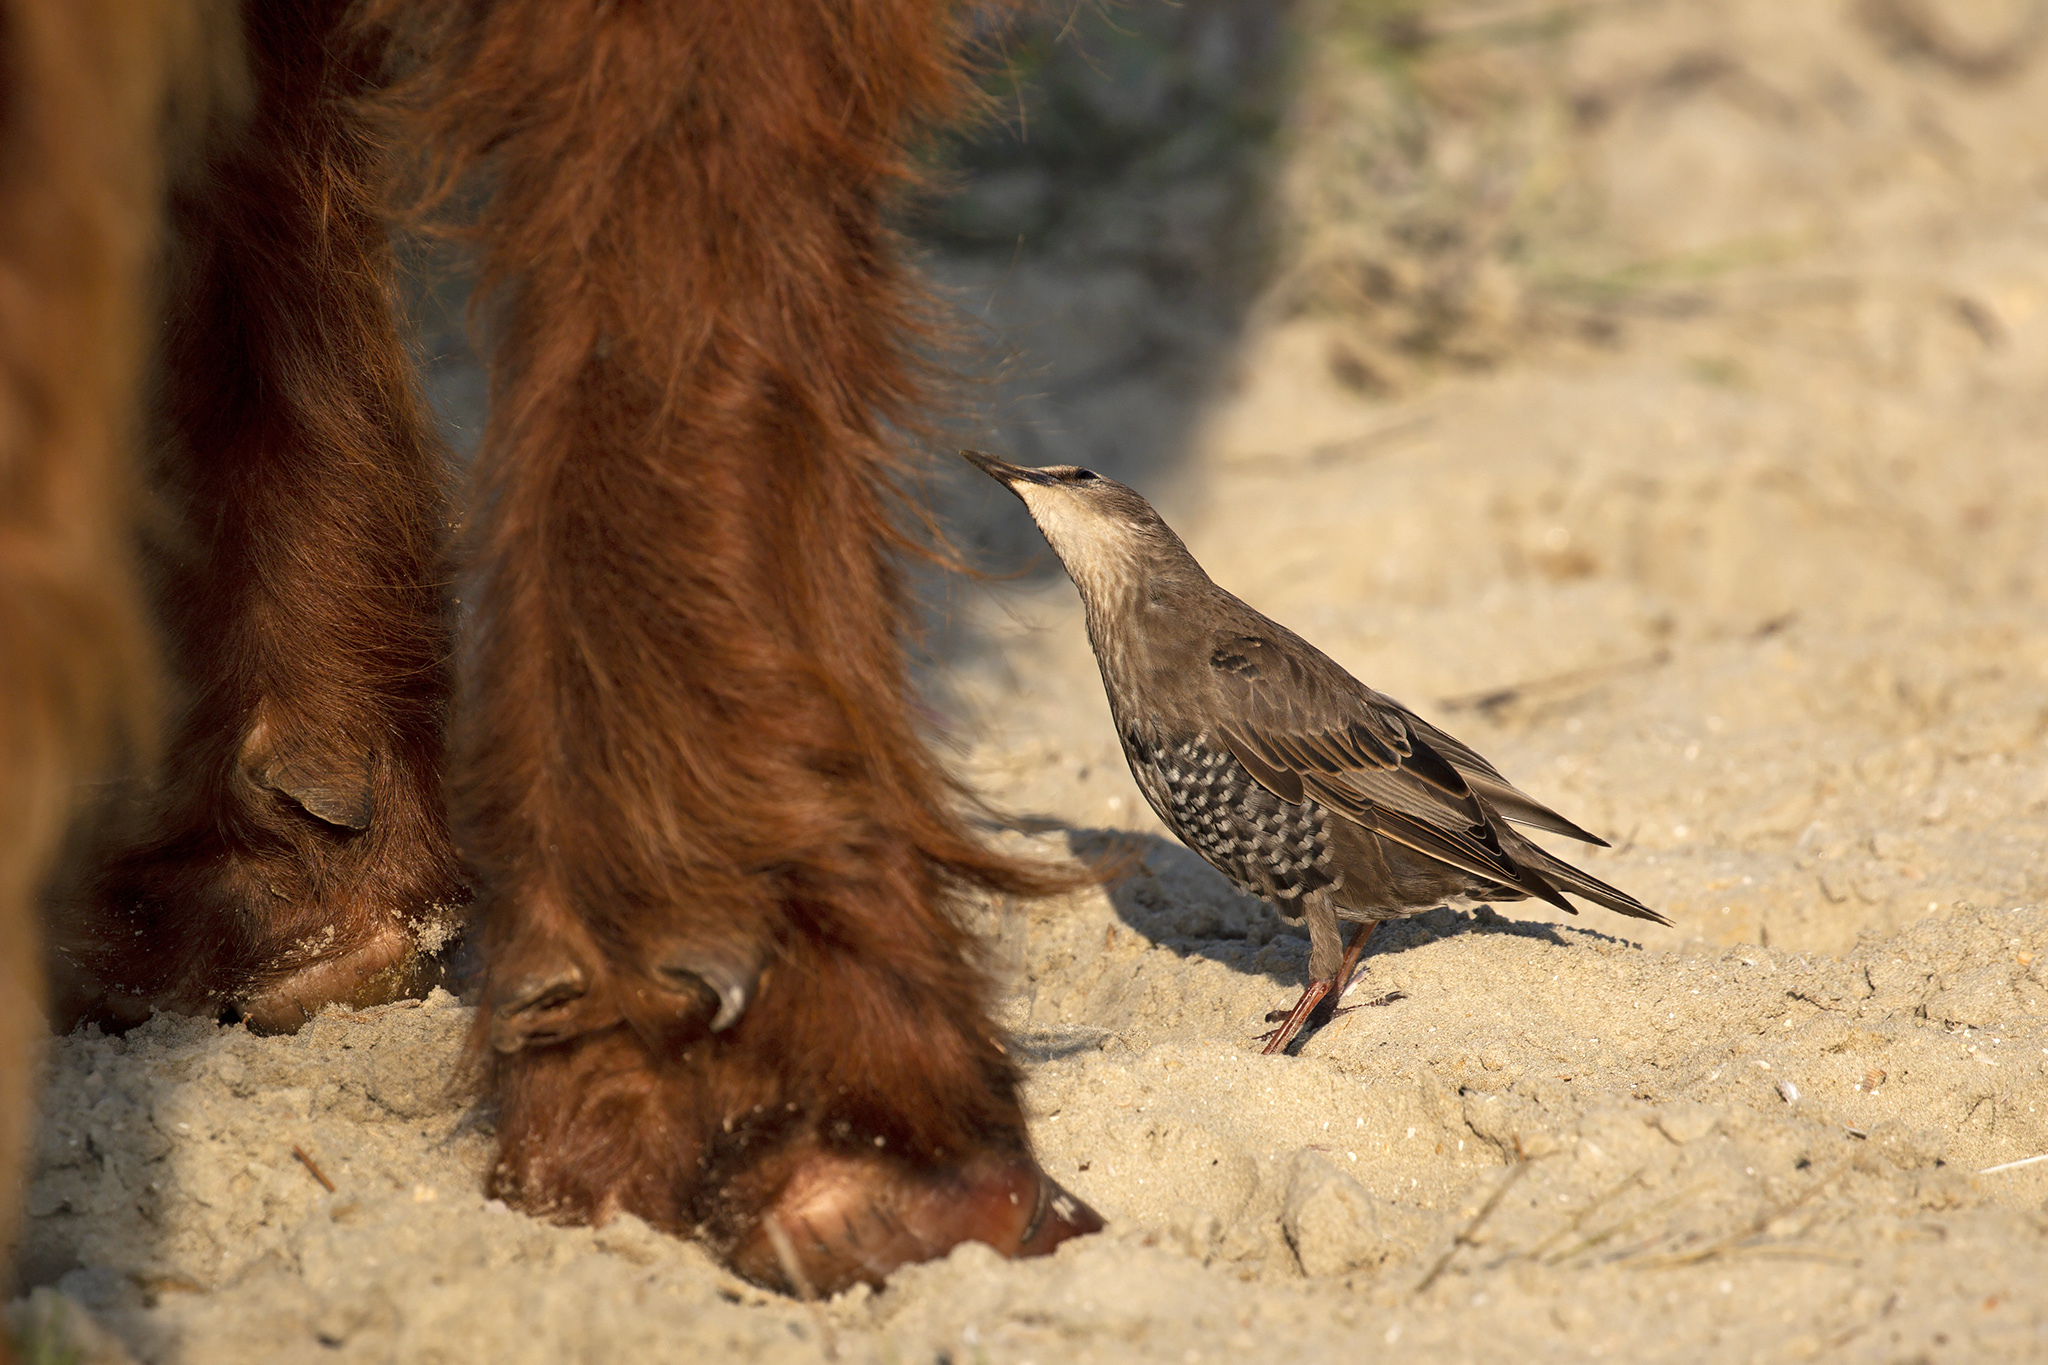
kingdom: Animalia
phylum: Chordata
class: Aves
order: Passeriformes
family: Sturnidae
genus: Sturnus
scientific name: Sturnus vulgaris
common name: Common starling
